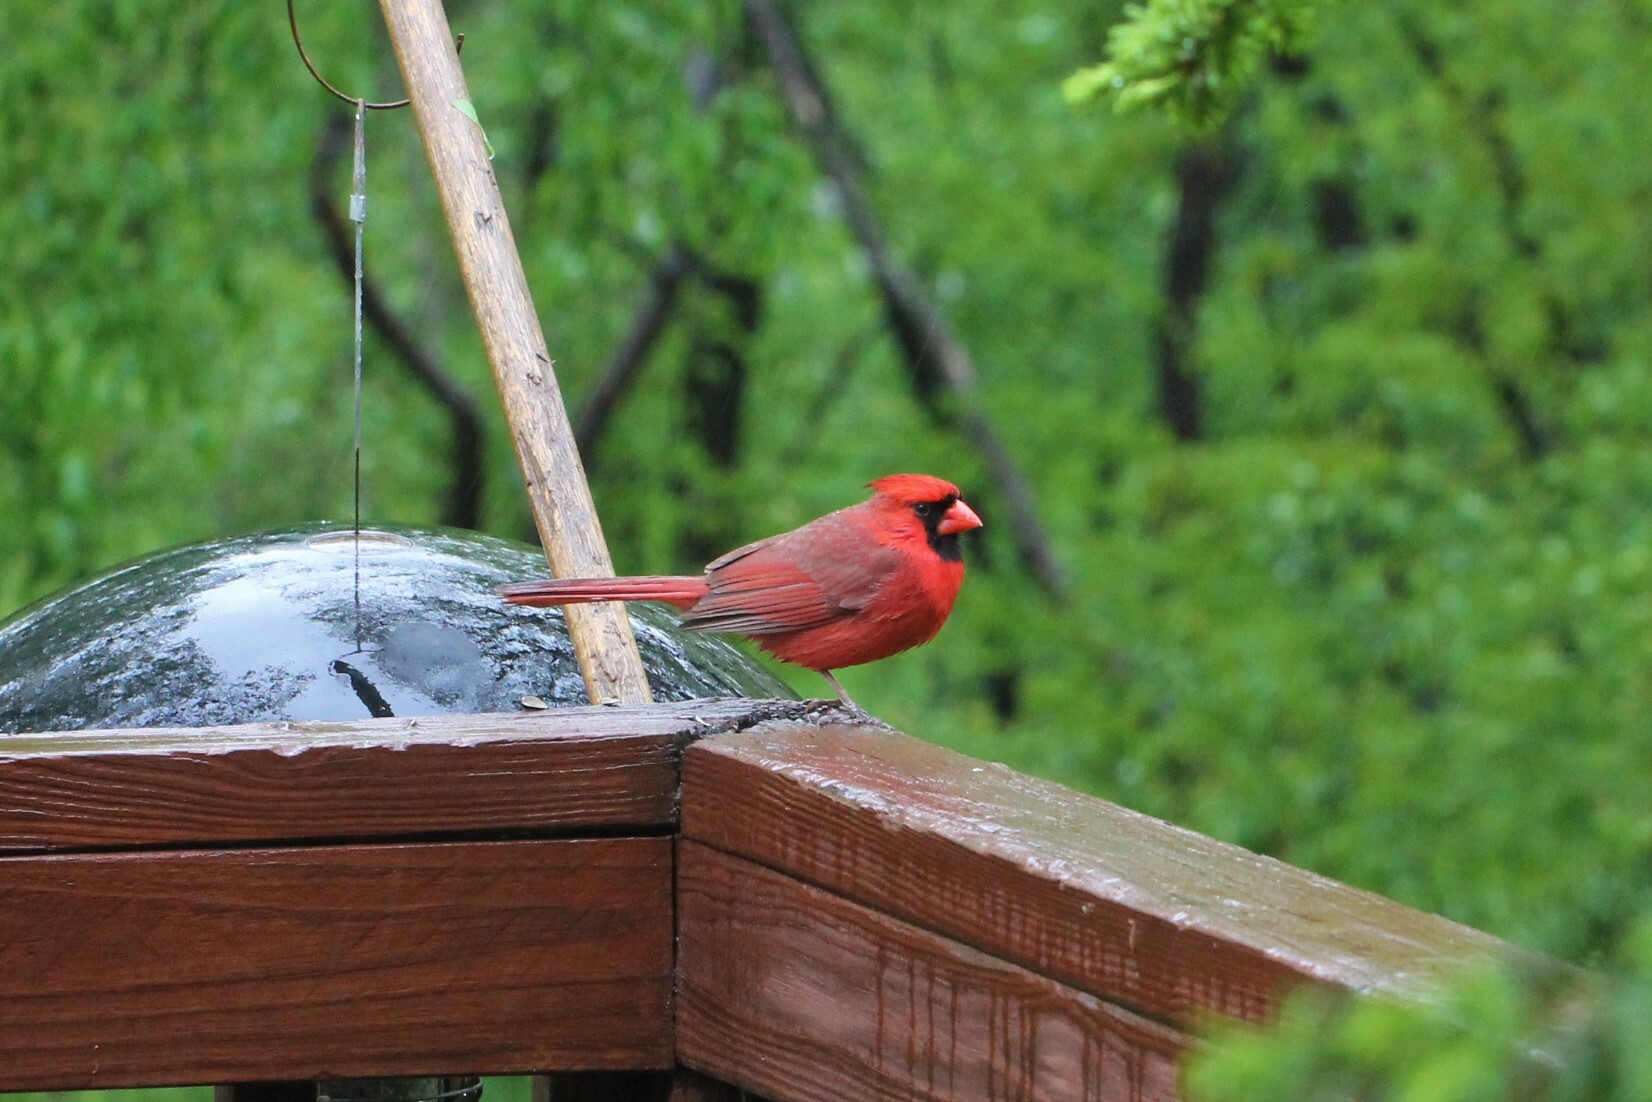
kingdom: Animalia
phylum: Chordata
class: Aves
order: Passeriformes
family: Cardinalidae
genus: Cardinalis
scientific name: Cardinalis cardinalis
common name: Northern cardinal
